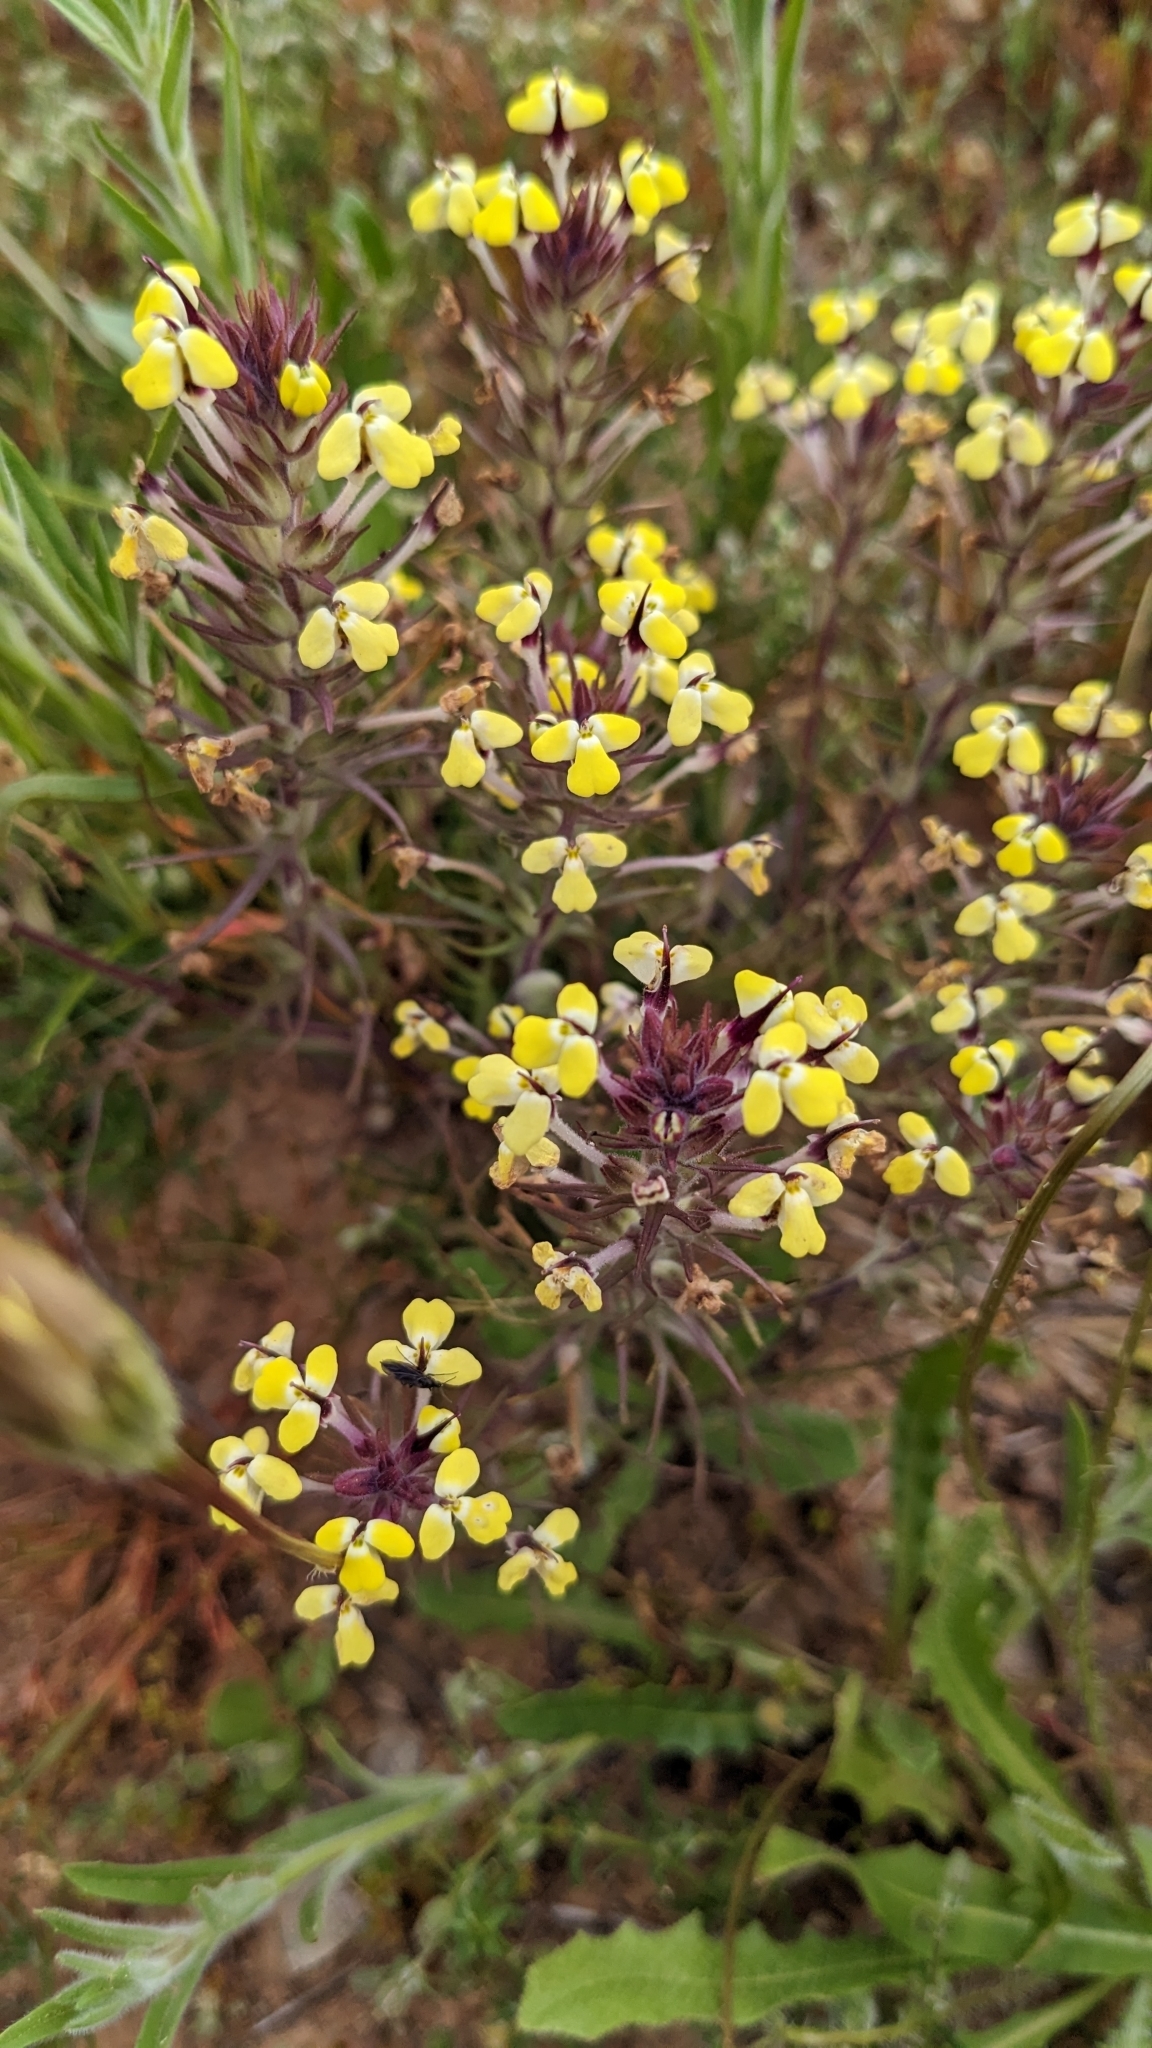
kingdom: Plantae
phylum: Tracheophyta
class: Magnoliopsida
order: Lamiales
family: Orobanchaceae
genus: Triphysaria
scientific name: Triphysaria eriantha
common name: Johnny-tuck
